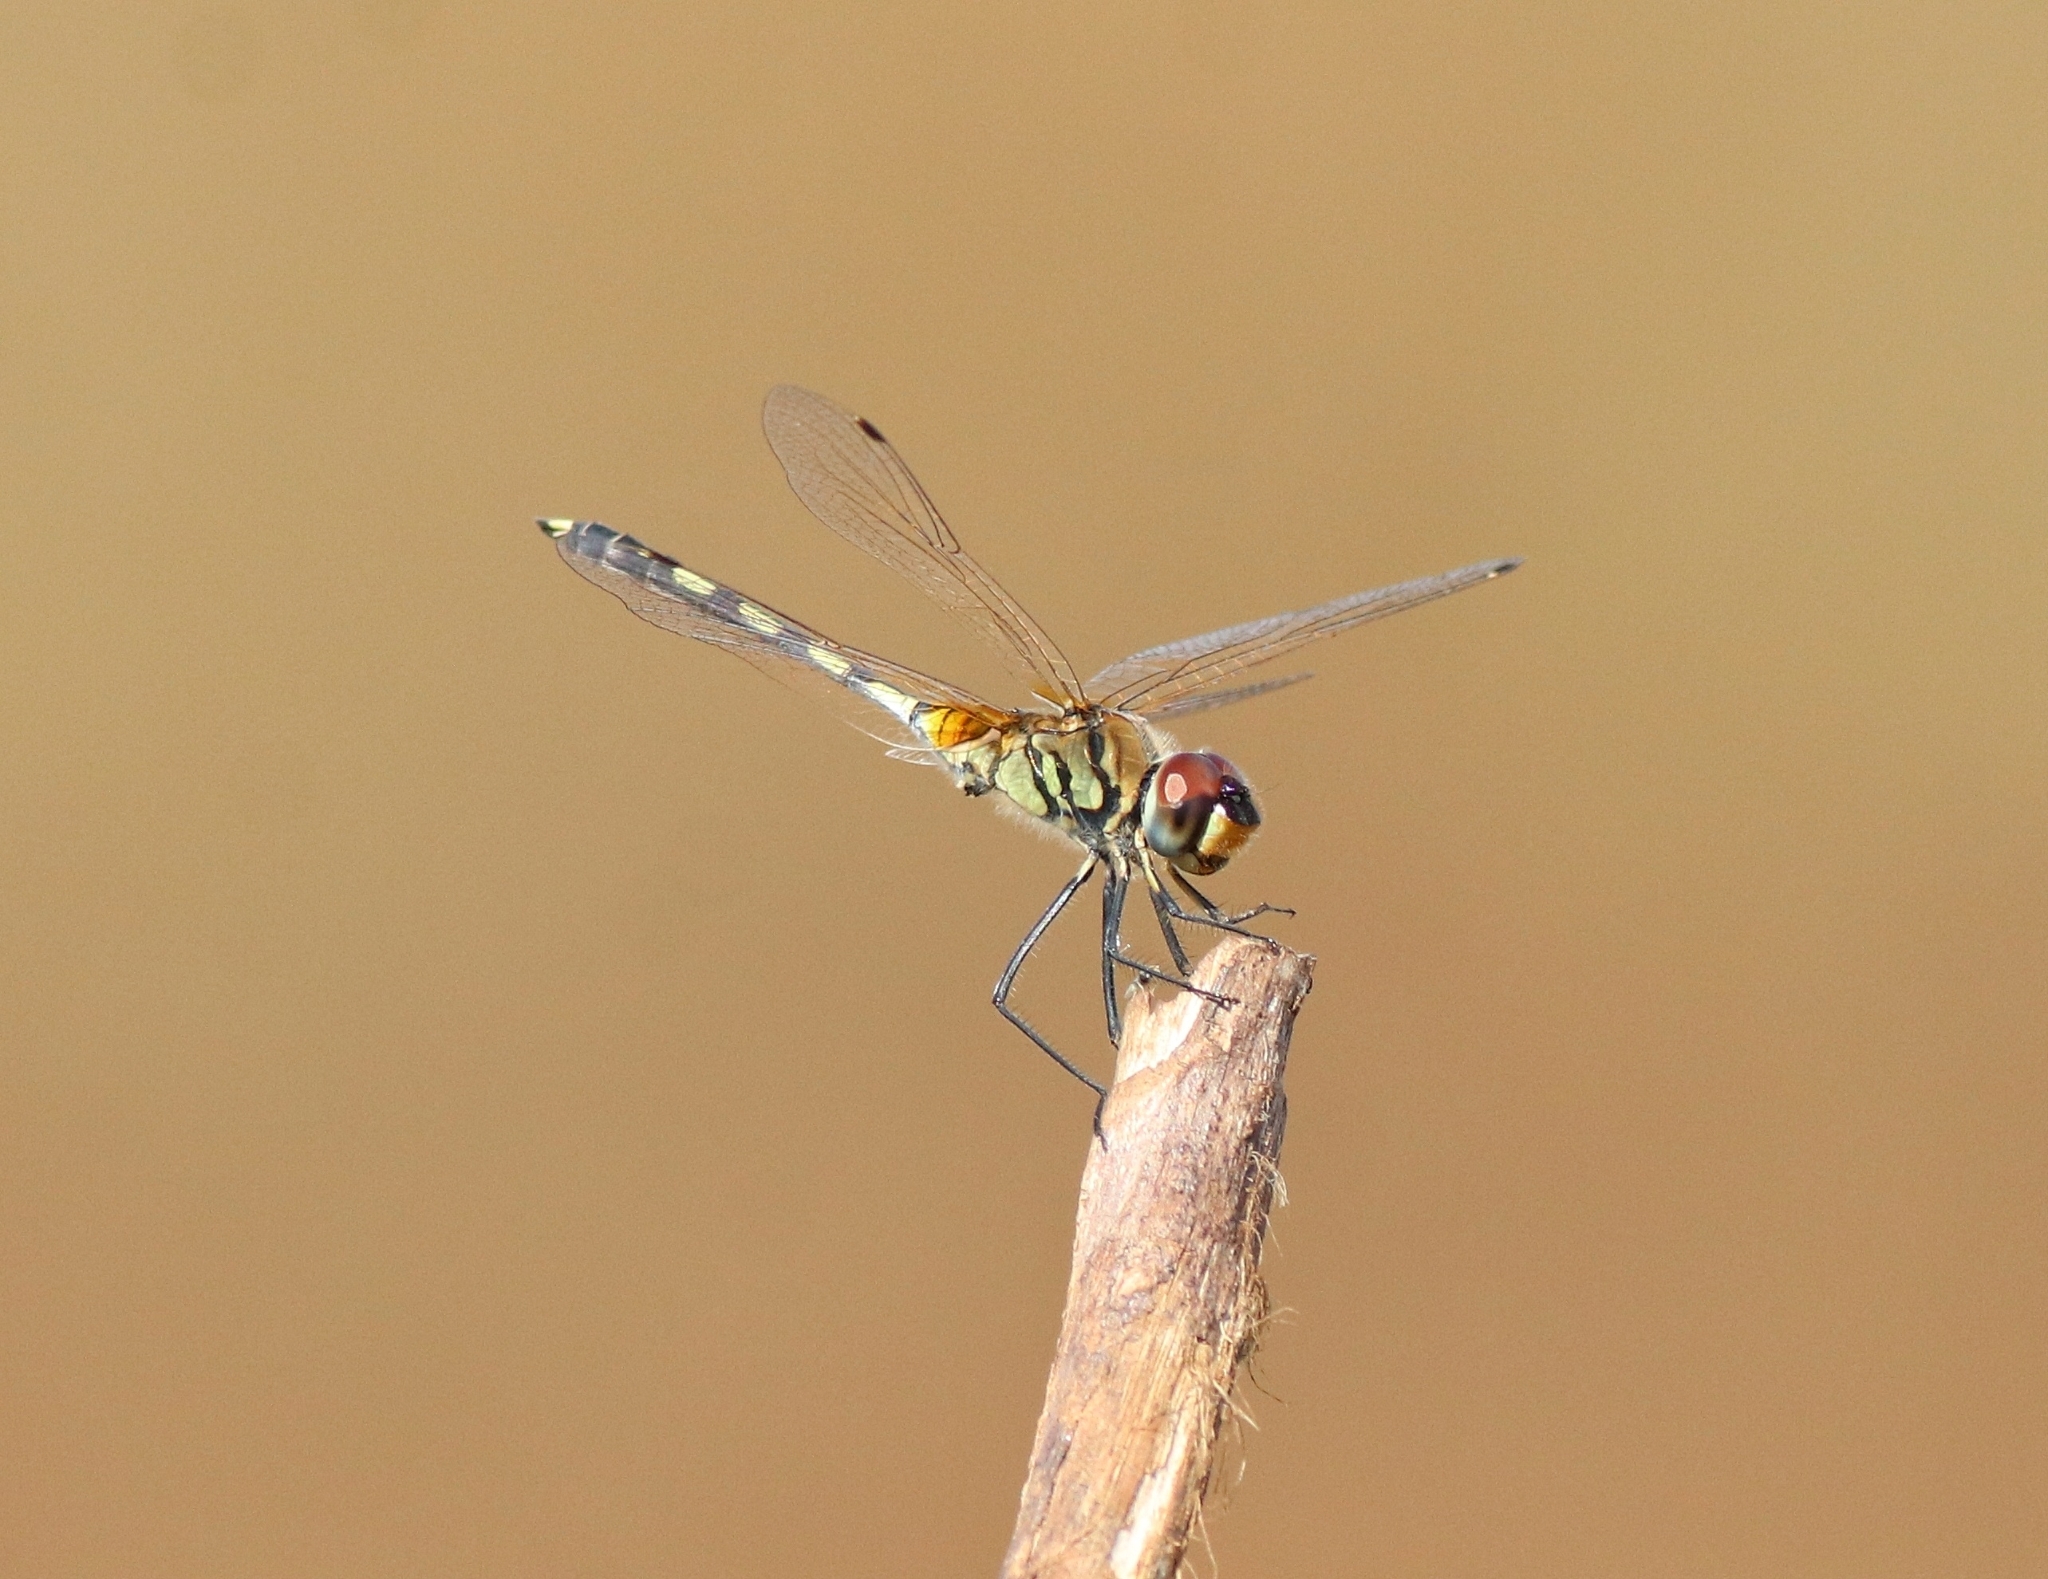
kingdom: Animalia
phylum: Arthropoda
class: Insecta
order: Odonata
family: Libellulidae
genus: Trithemis
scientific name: Trithemis pallidinervis
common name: Dancing dropwing
